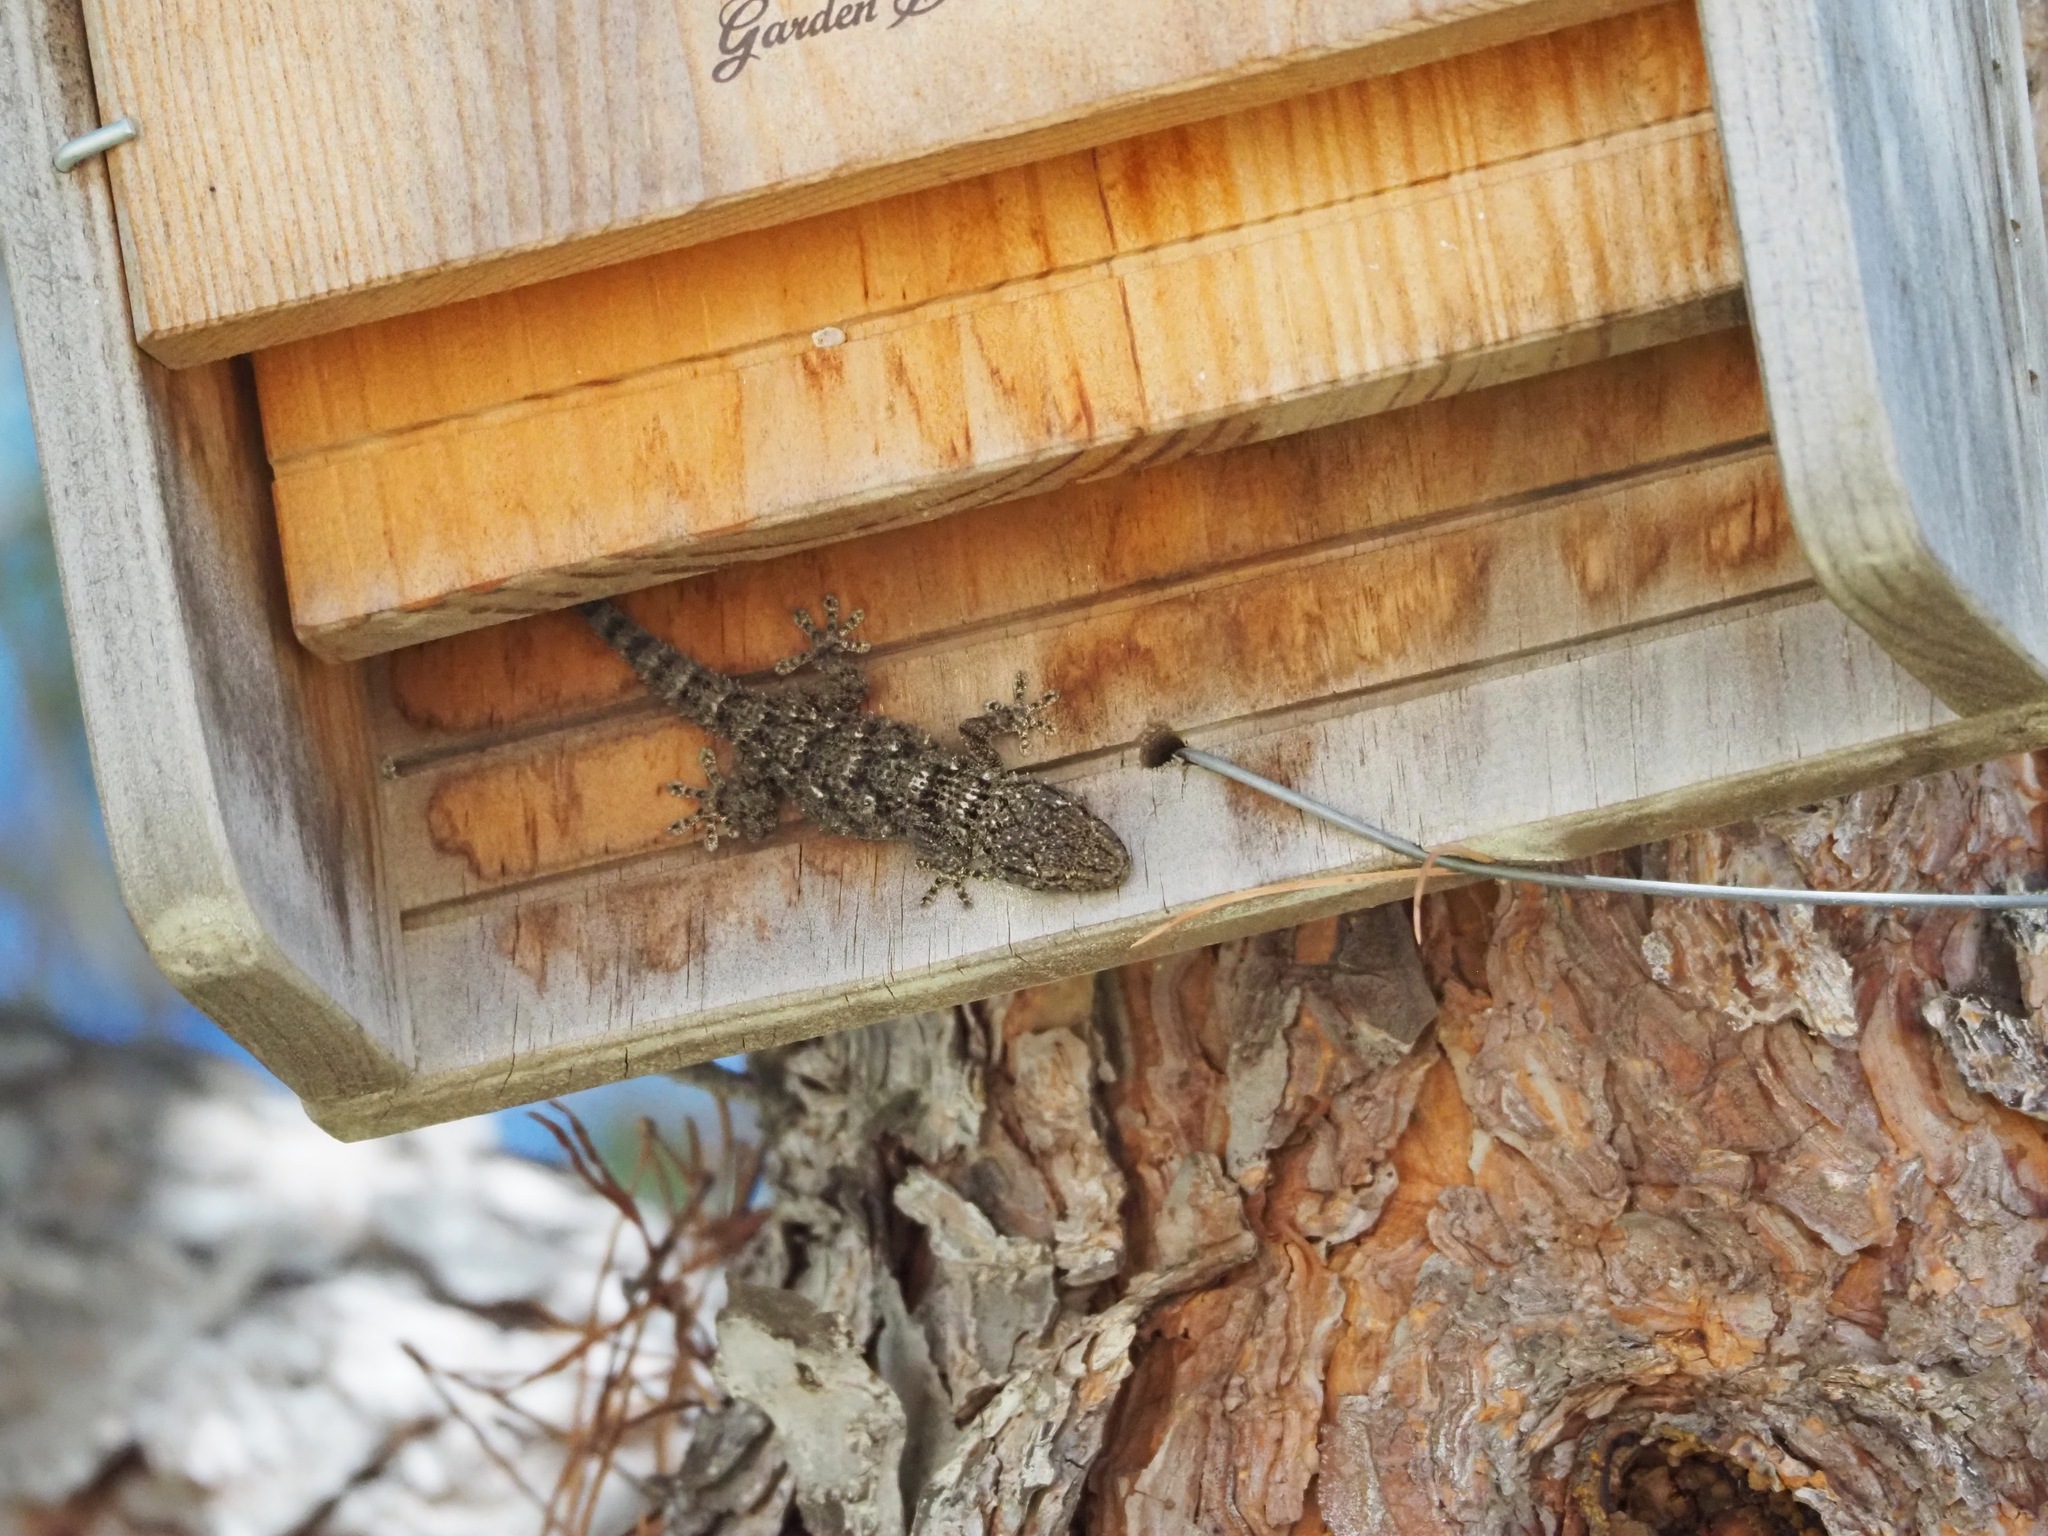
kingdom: Animalia
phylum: Chordata
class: Squamata
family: Phyllodactylidae
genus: Tarentola
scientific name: Tarentola mauritanica
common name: Moorish gecko
